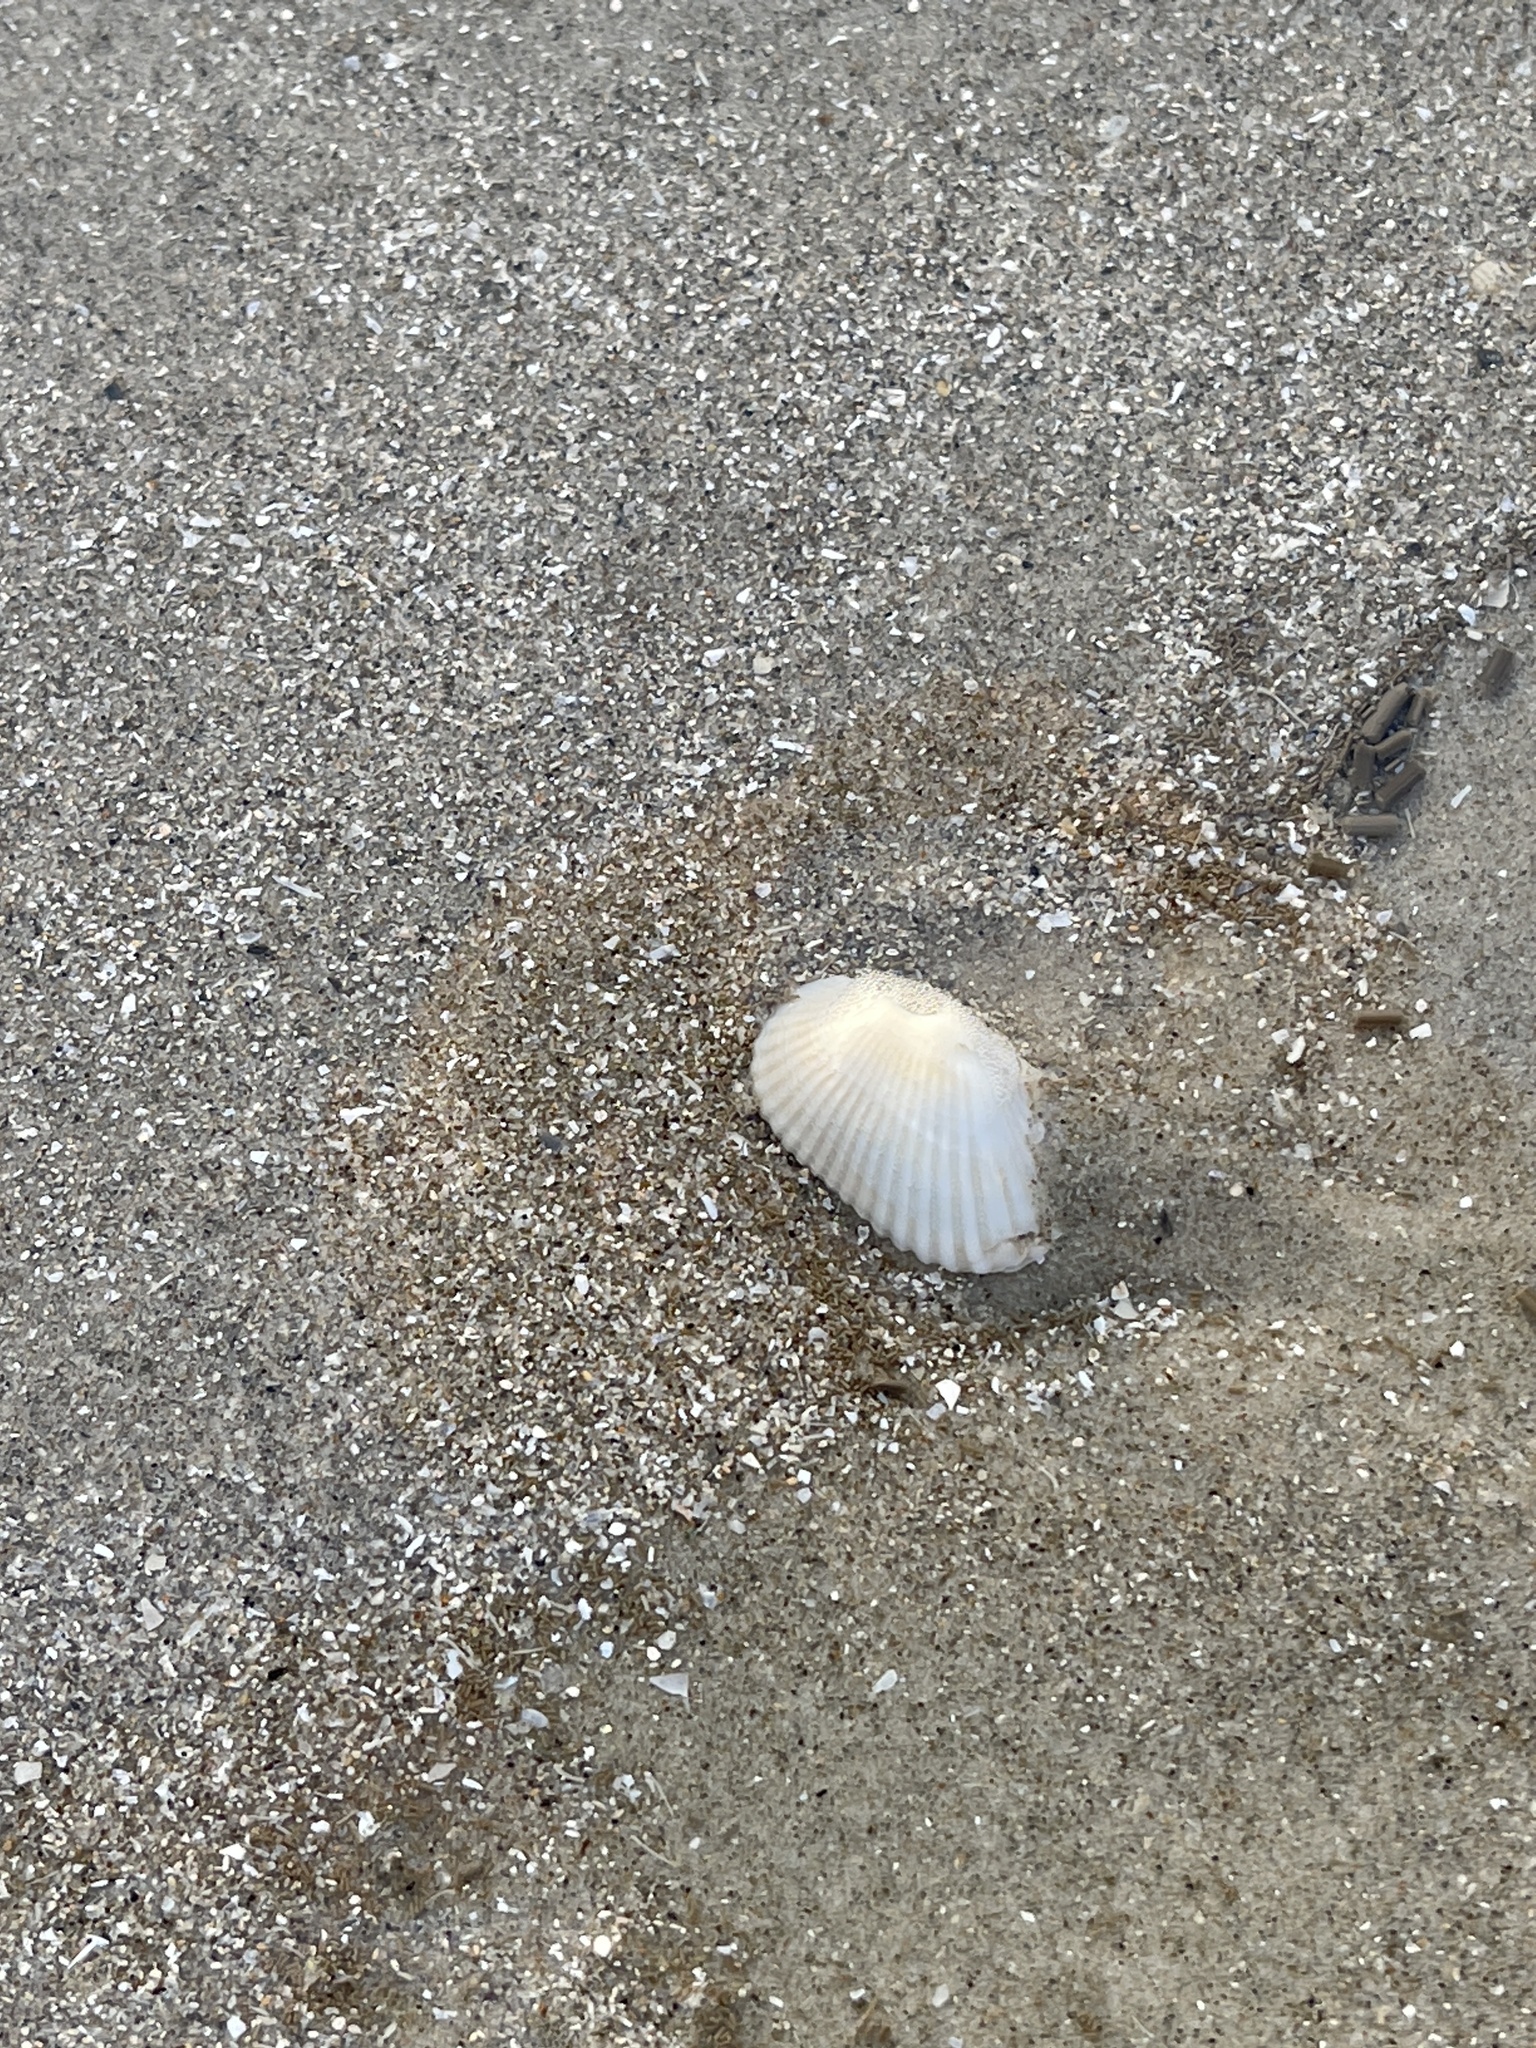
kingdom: Animalia
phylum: Mollusca
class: Bivalvia
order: Arcida
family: Arcidae
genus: Anadara
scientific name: Anadara transversa
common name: Transverse ark
